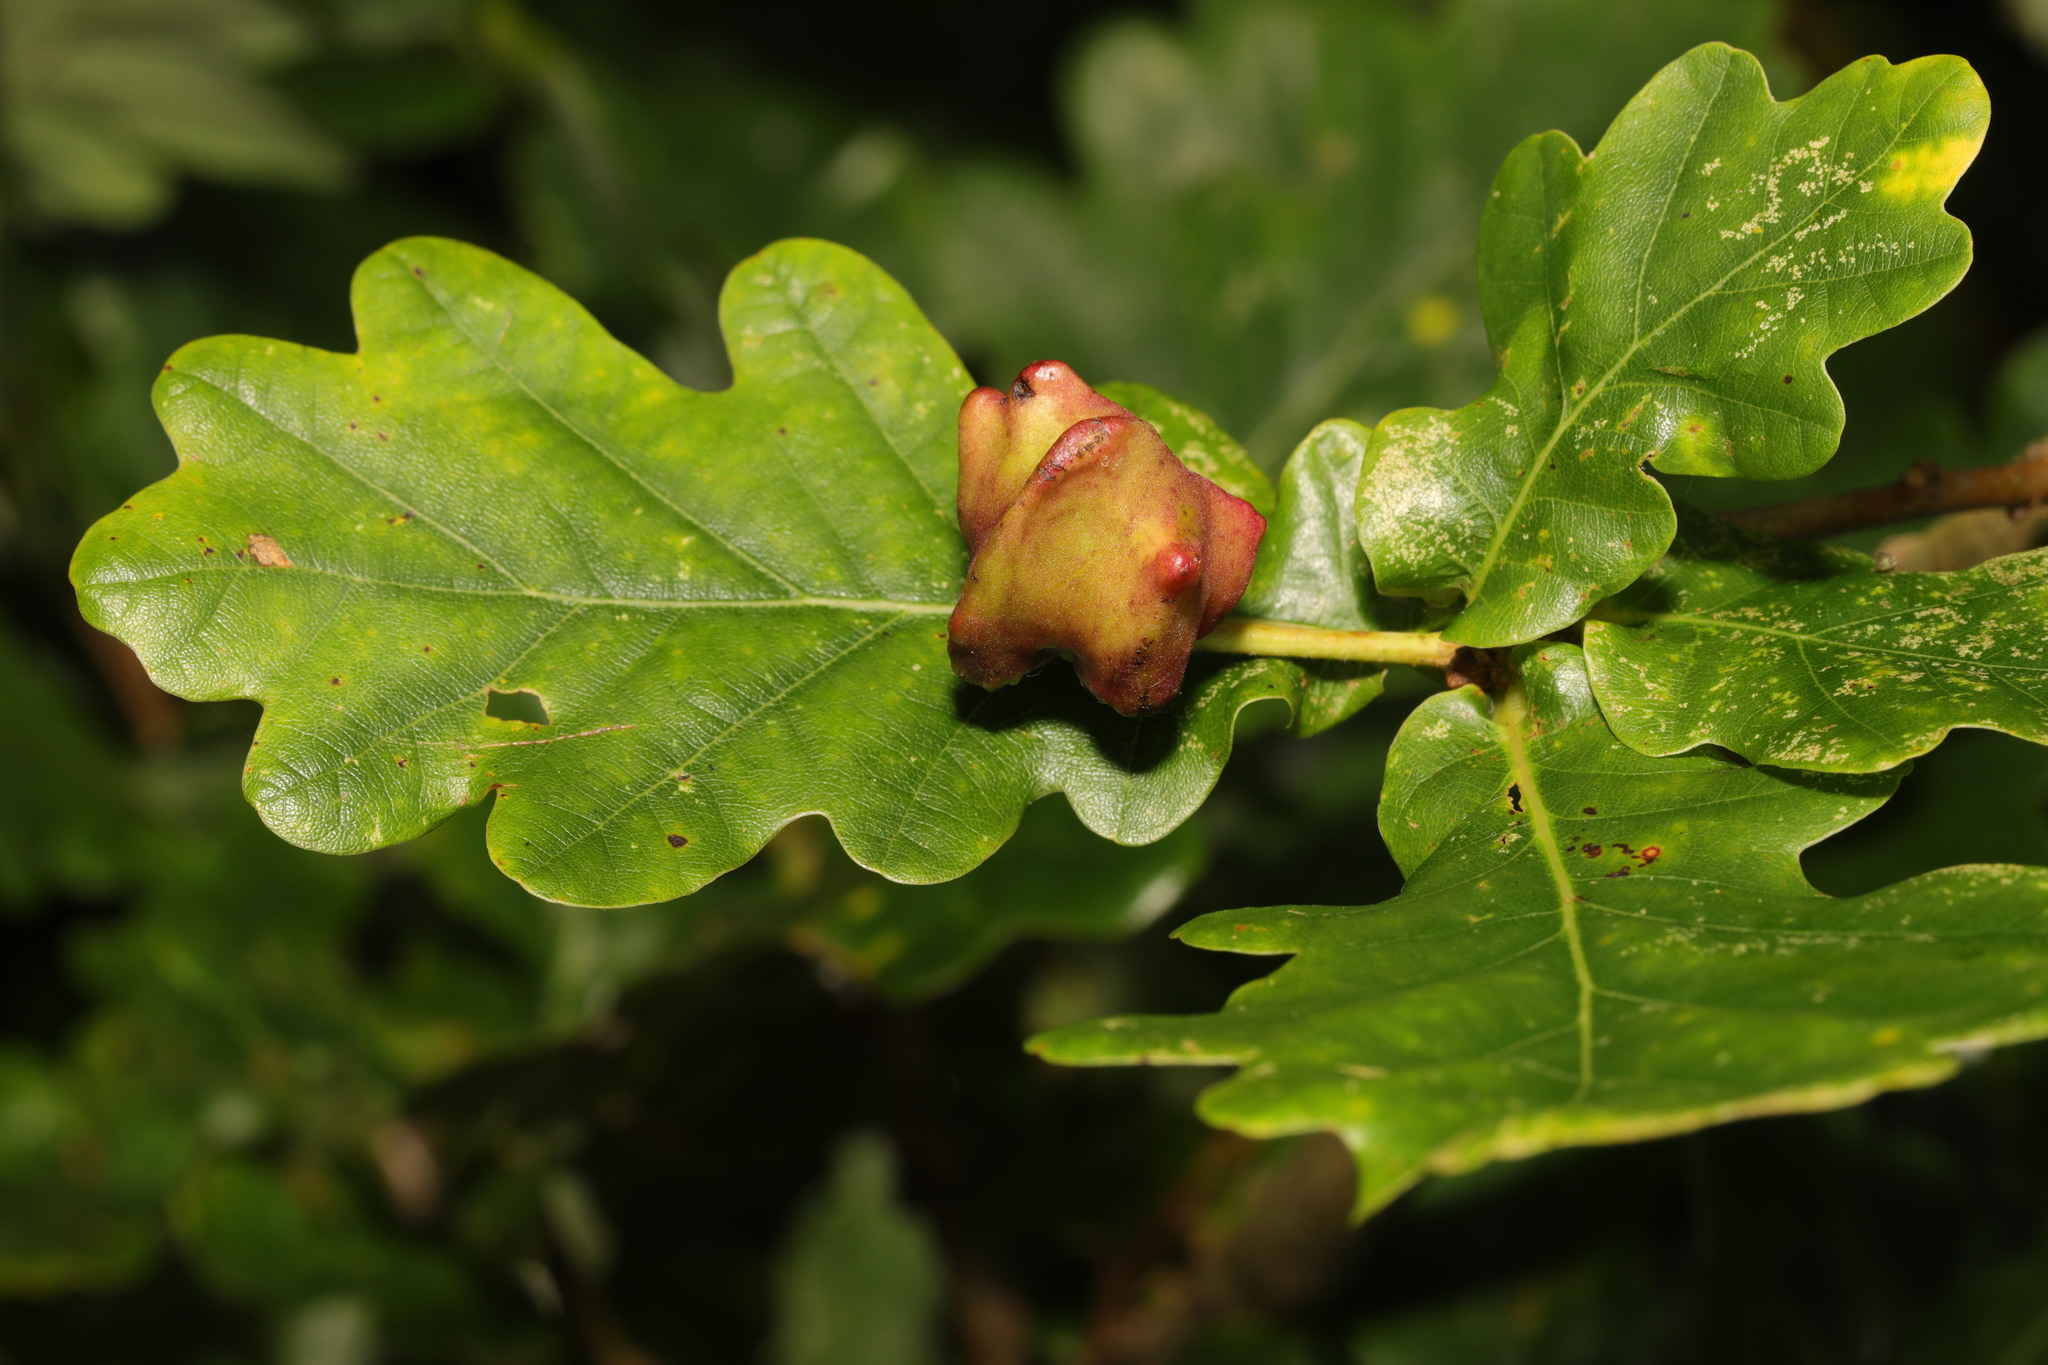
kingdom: Animalia
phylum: Arthropoda
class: Insecta
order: Hymenoptera
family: Cynipidae
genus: Andricus
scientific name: Andricus quercuscalicis
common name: Knopper gall
